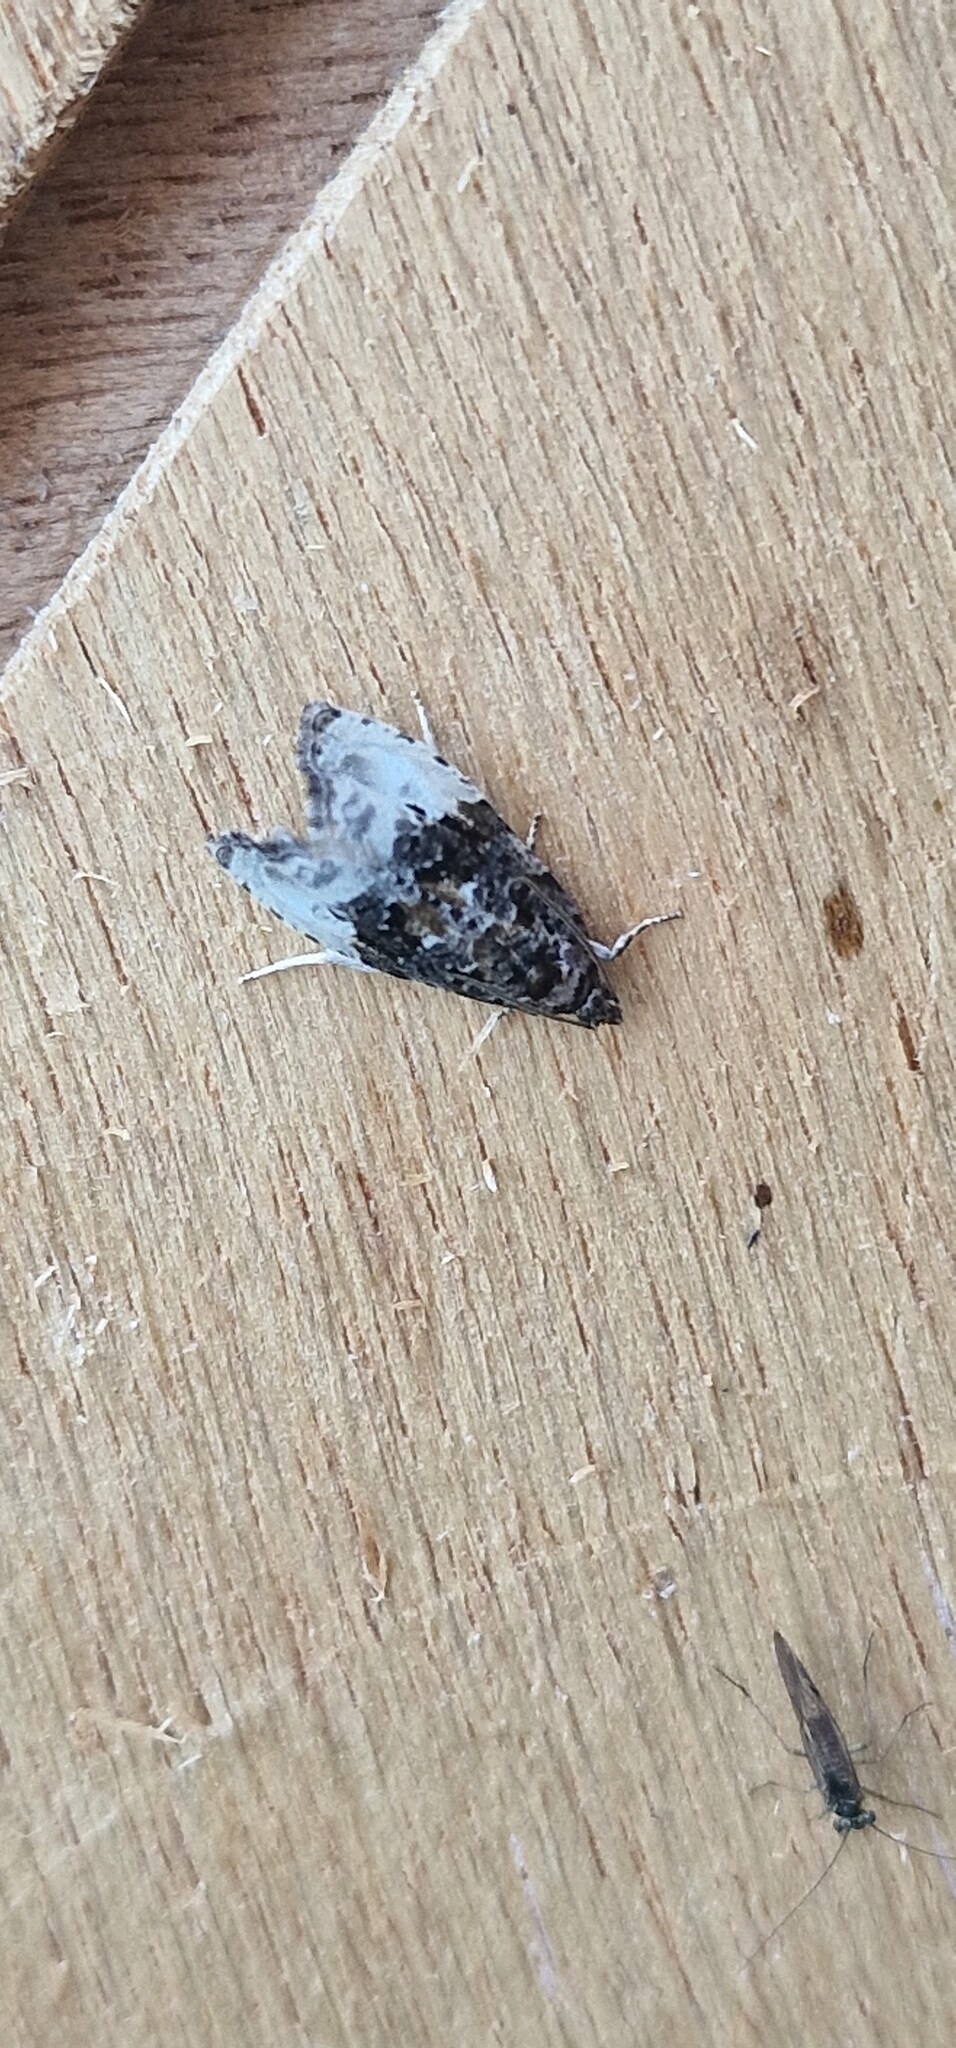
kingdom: Animalia
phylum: Arthropoda
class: Insecta
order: Lepidoptera
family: Tortricidae
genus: Hedya
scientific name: Hedya nubiferana
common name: Marbled orchard tortrix
